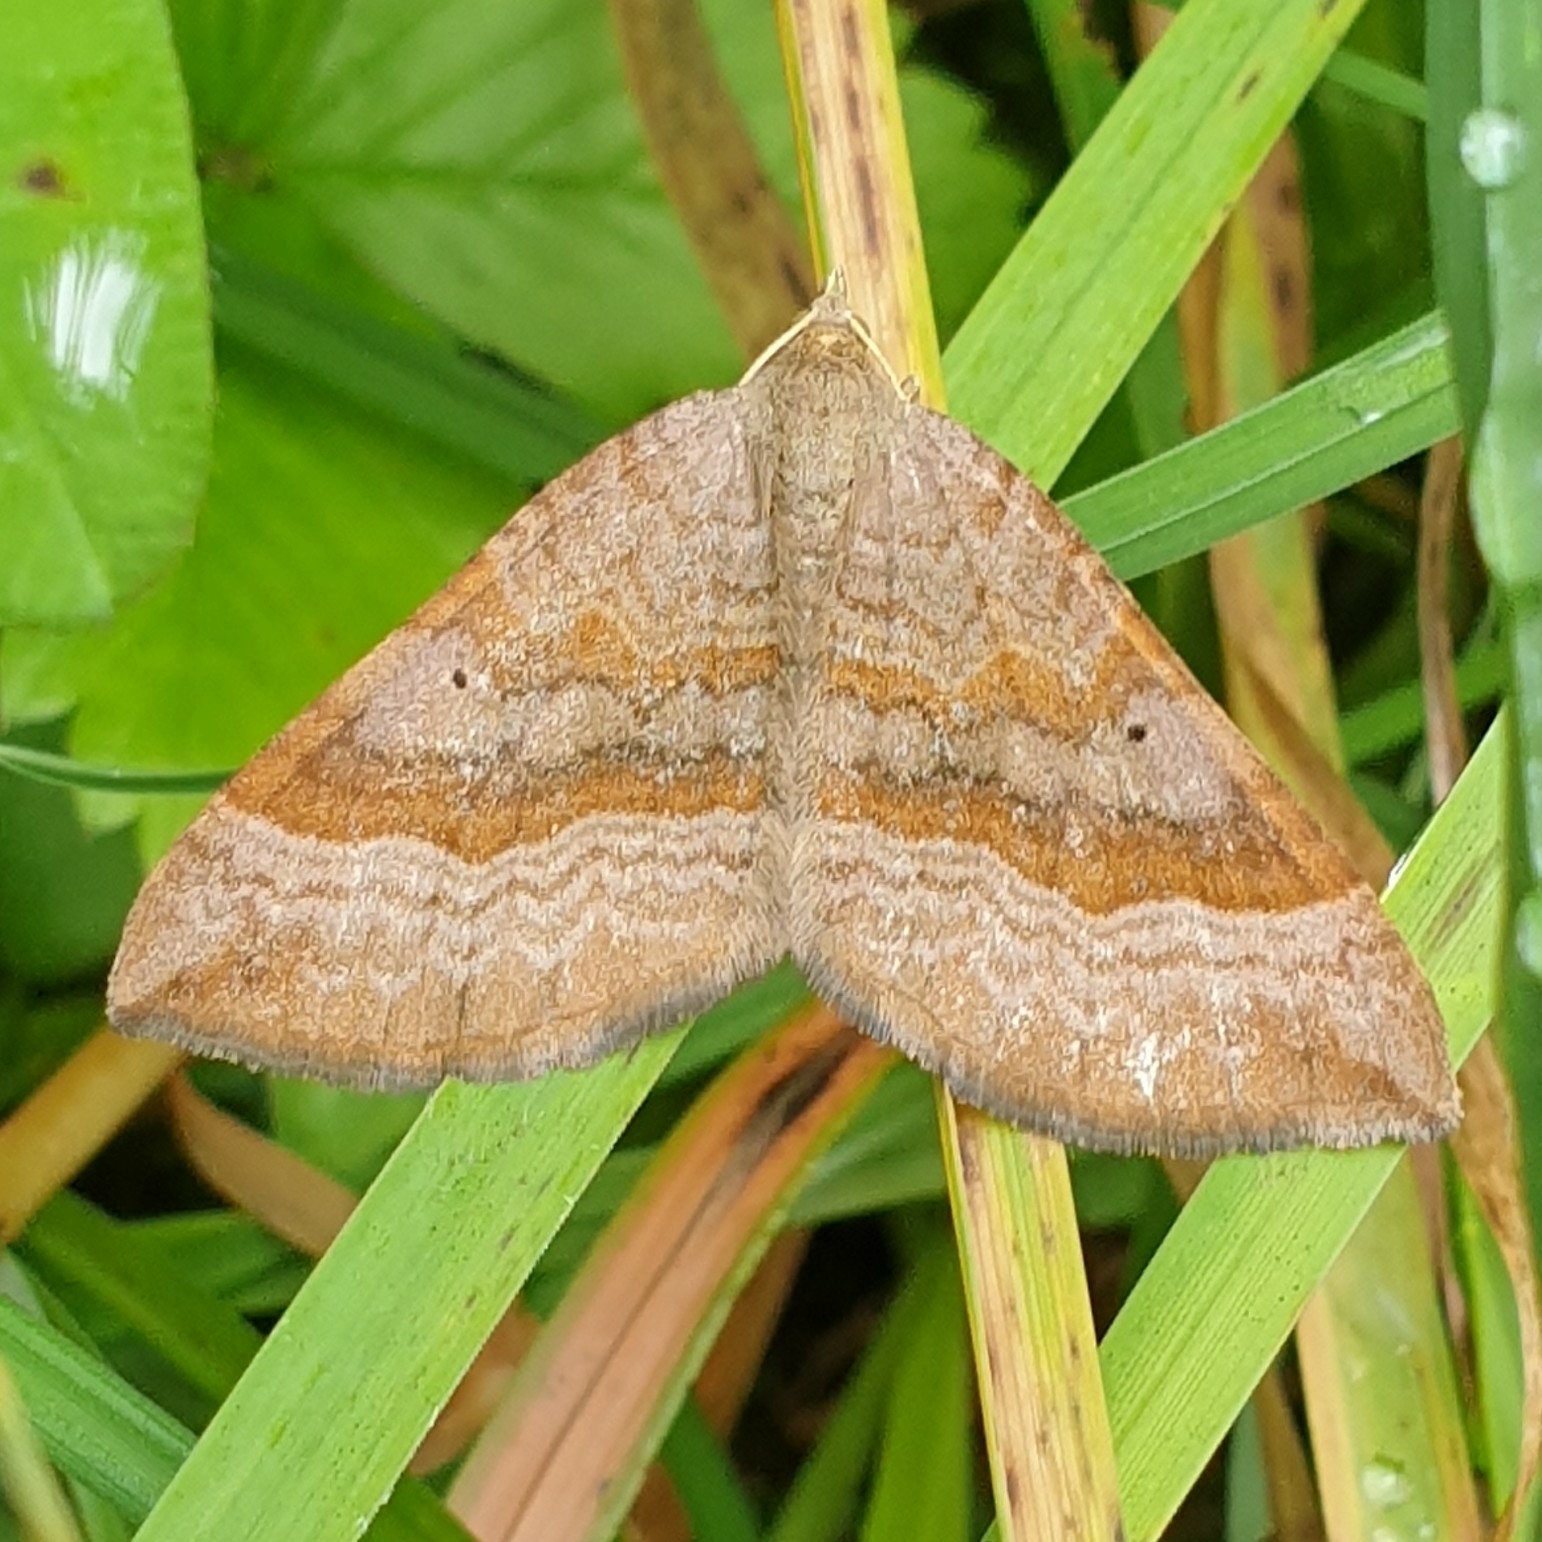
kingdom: Animalia
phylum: Arthropoda
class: Insecta
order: Lepidoptera
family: Geometridae
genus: Scotopteryx
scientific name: Scotopteryx chenopodiata
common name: Shaded broad-bar
